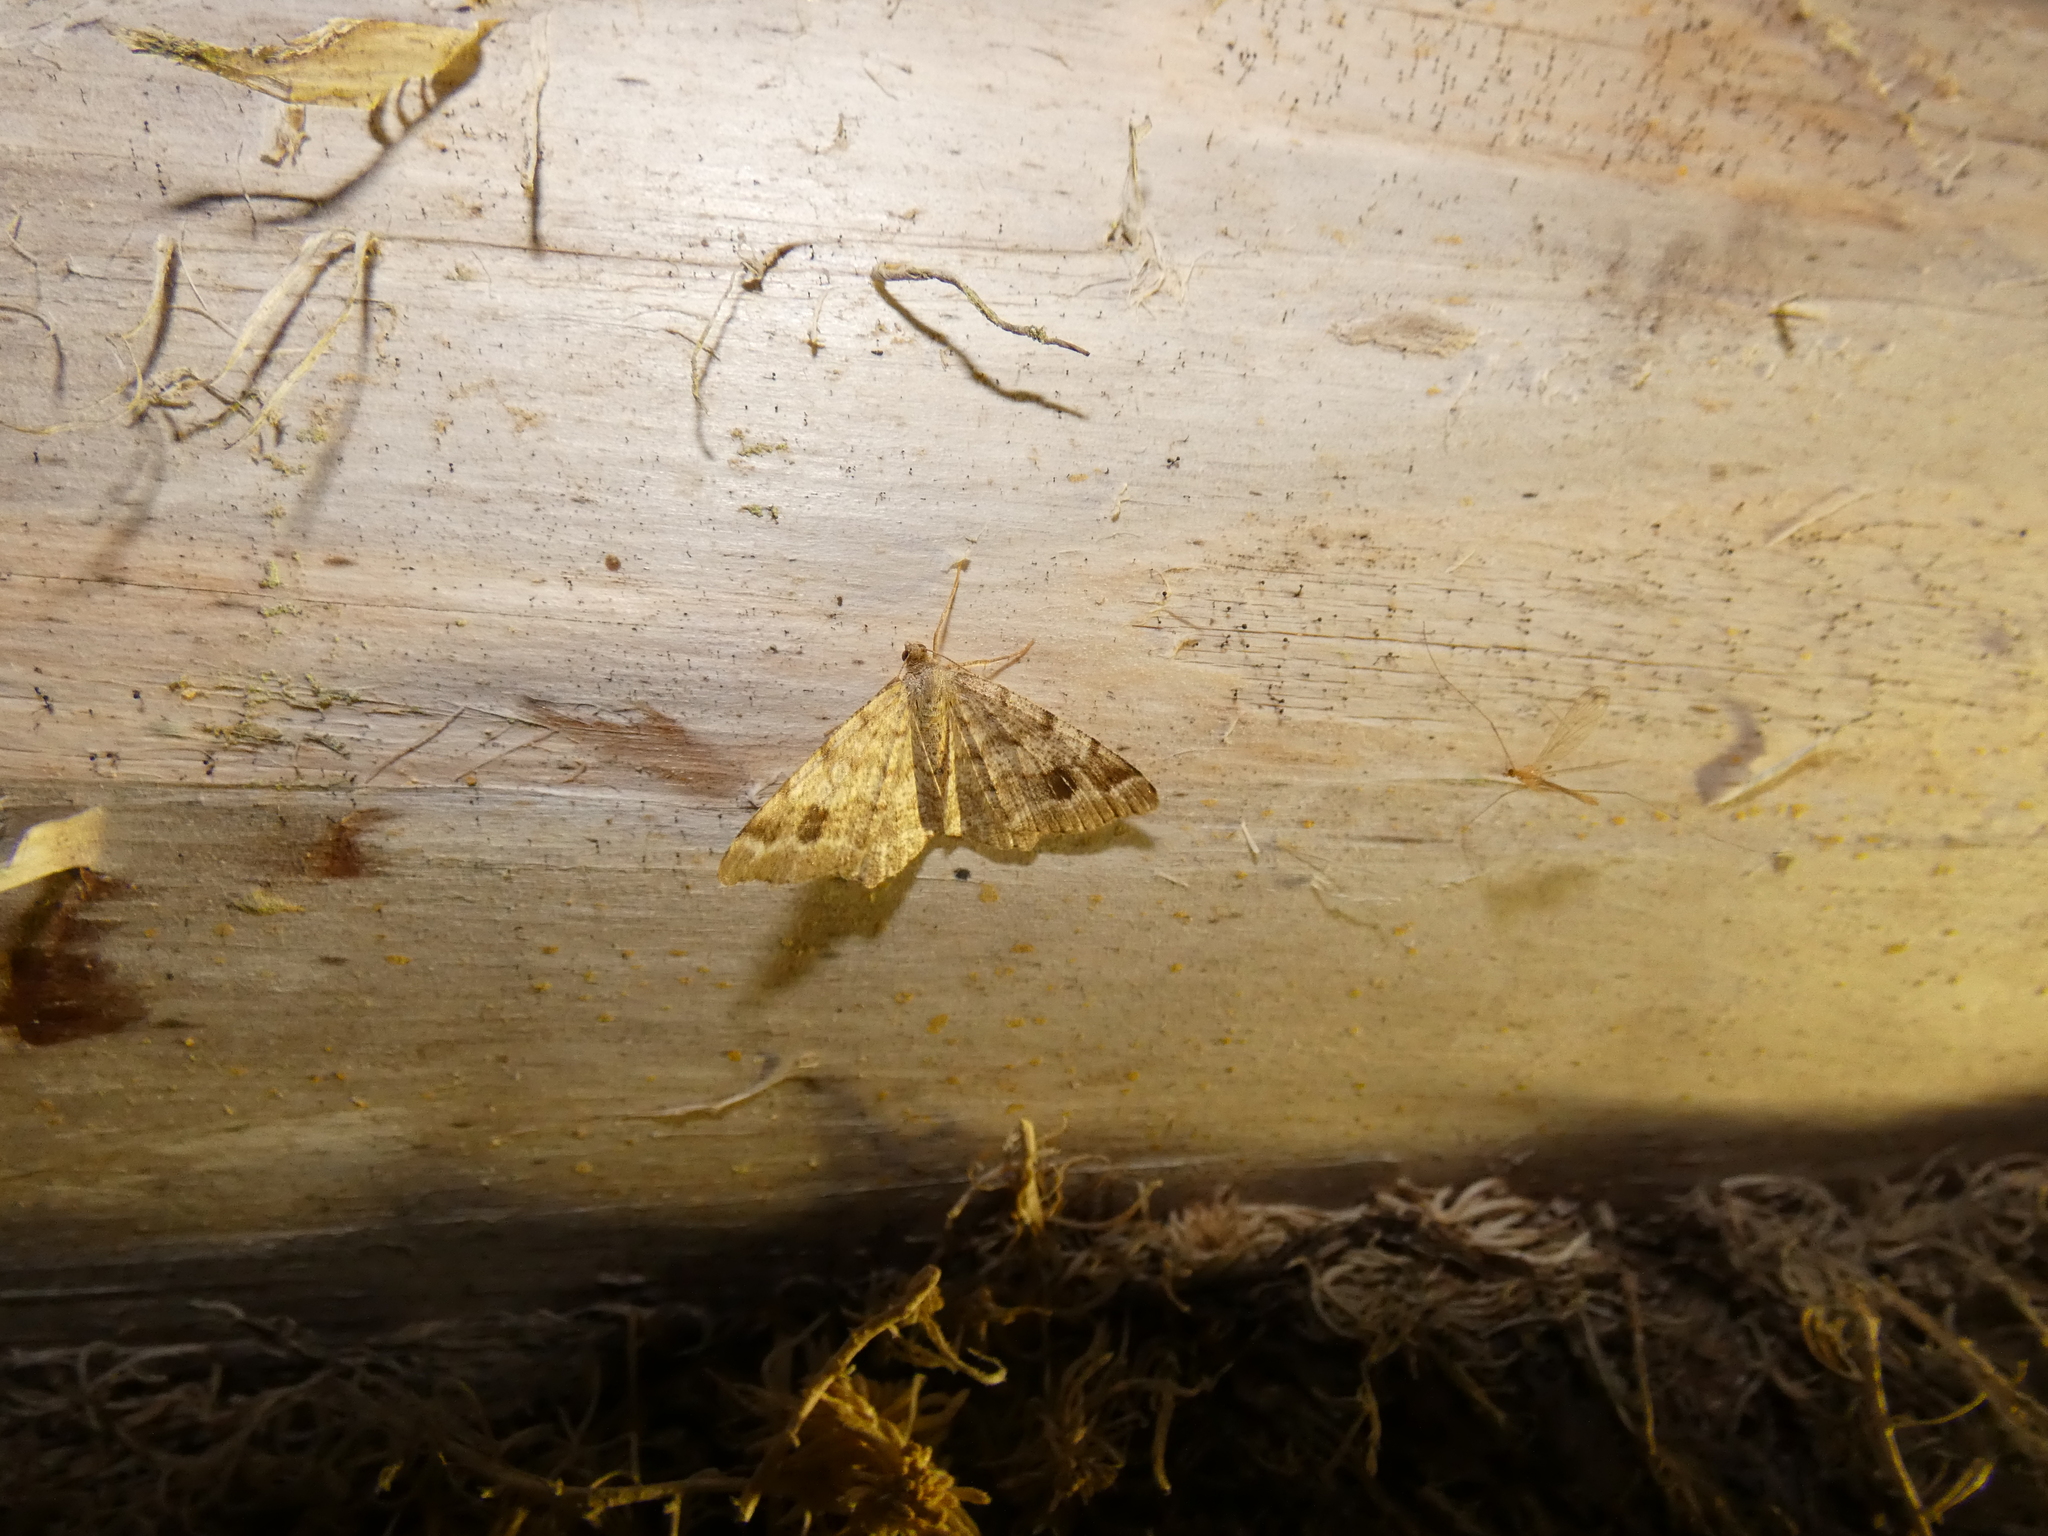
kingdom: Animalia
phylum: Arthropoda
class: Insecta
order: Lepidoptera
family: Geometridae
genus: Macaria
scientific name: Macaria signaria
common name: Dusky peacock
